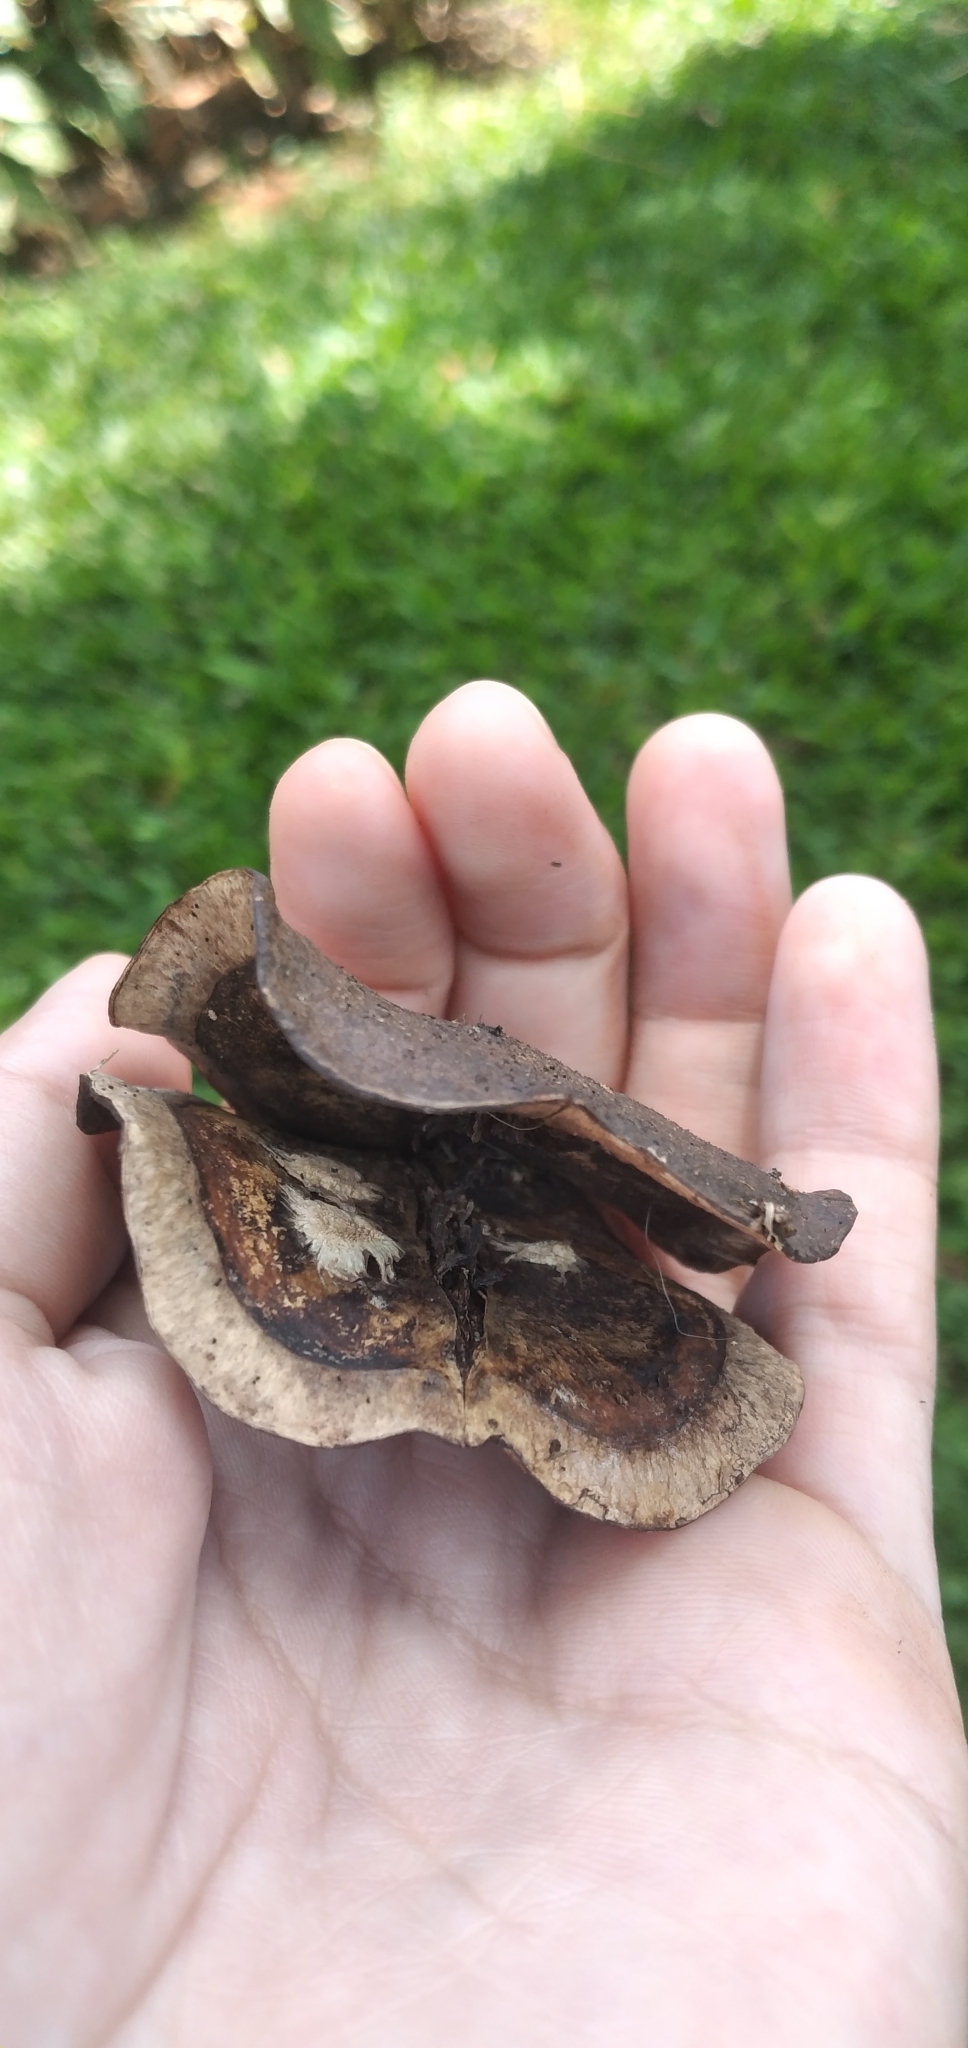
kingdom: Plantae
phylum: Tracheophyta
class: Magnoliopsida
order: Lamiales
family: Bignoniaceae
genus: Jacaranda
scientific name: Jacaranda micrantha
